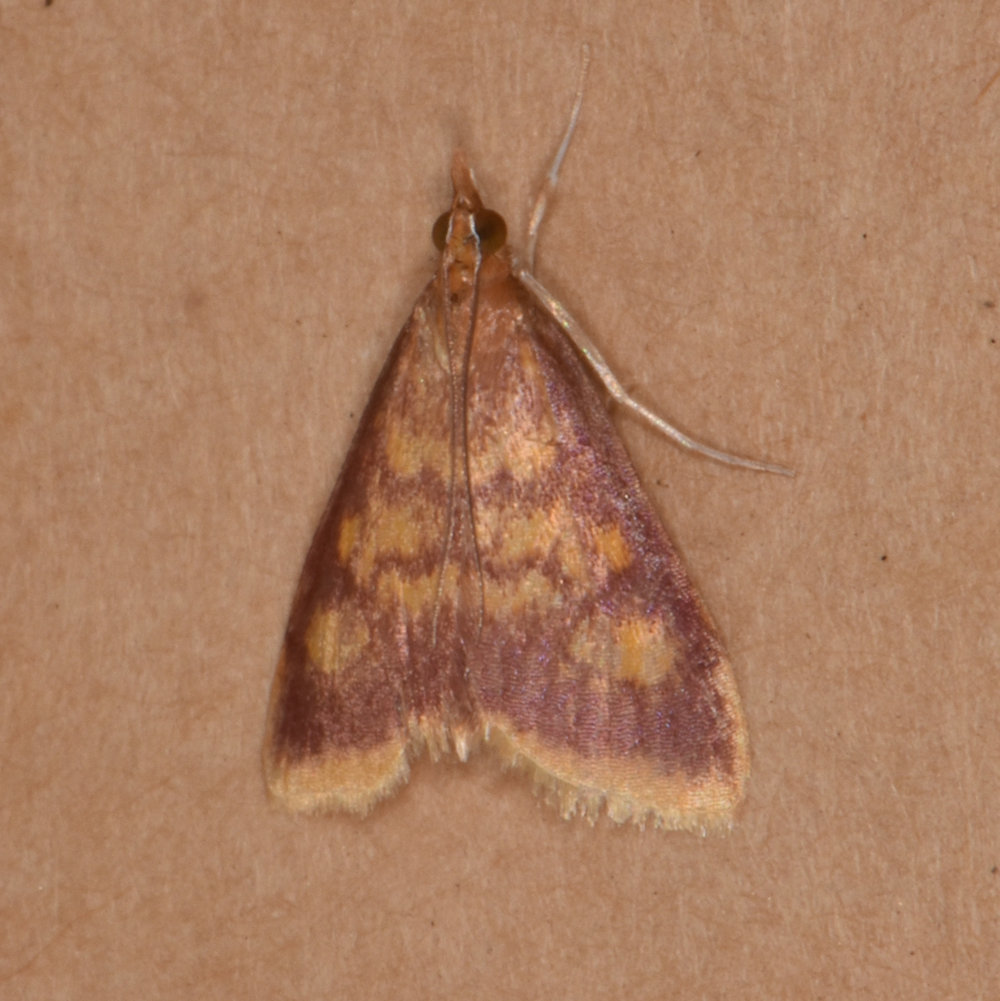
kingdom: Animalia
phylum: Arthropoda
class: Insecta
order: Lepidoptera
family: Crambidae
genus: Pyrausta
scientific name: Pyrausta acrionalis
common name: Mint-loving pyrausta moth
